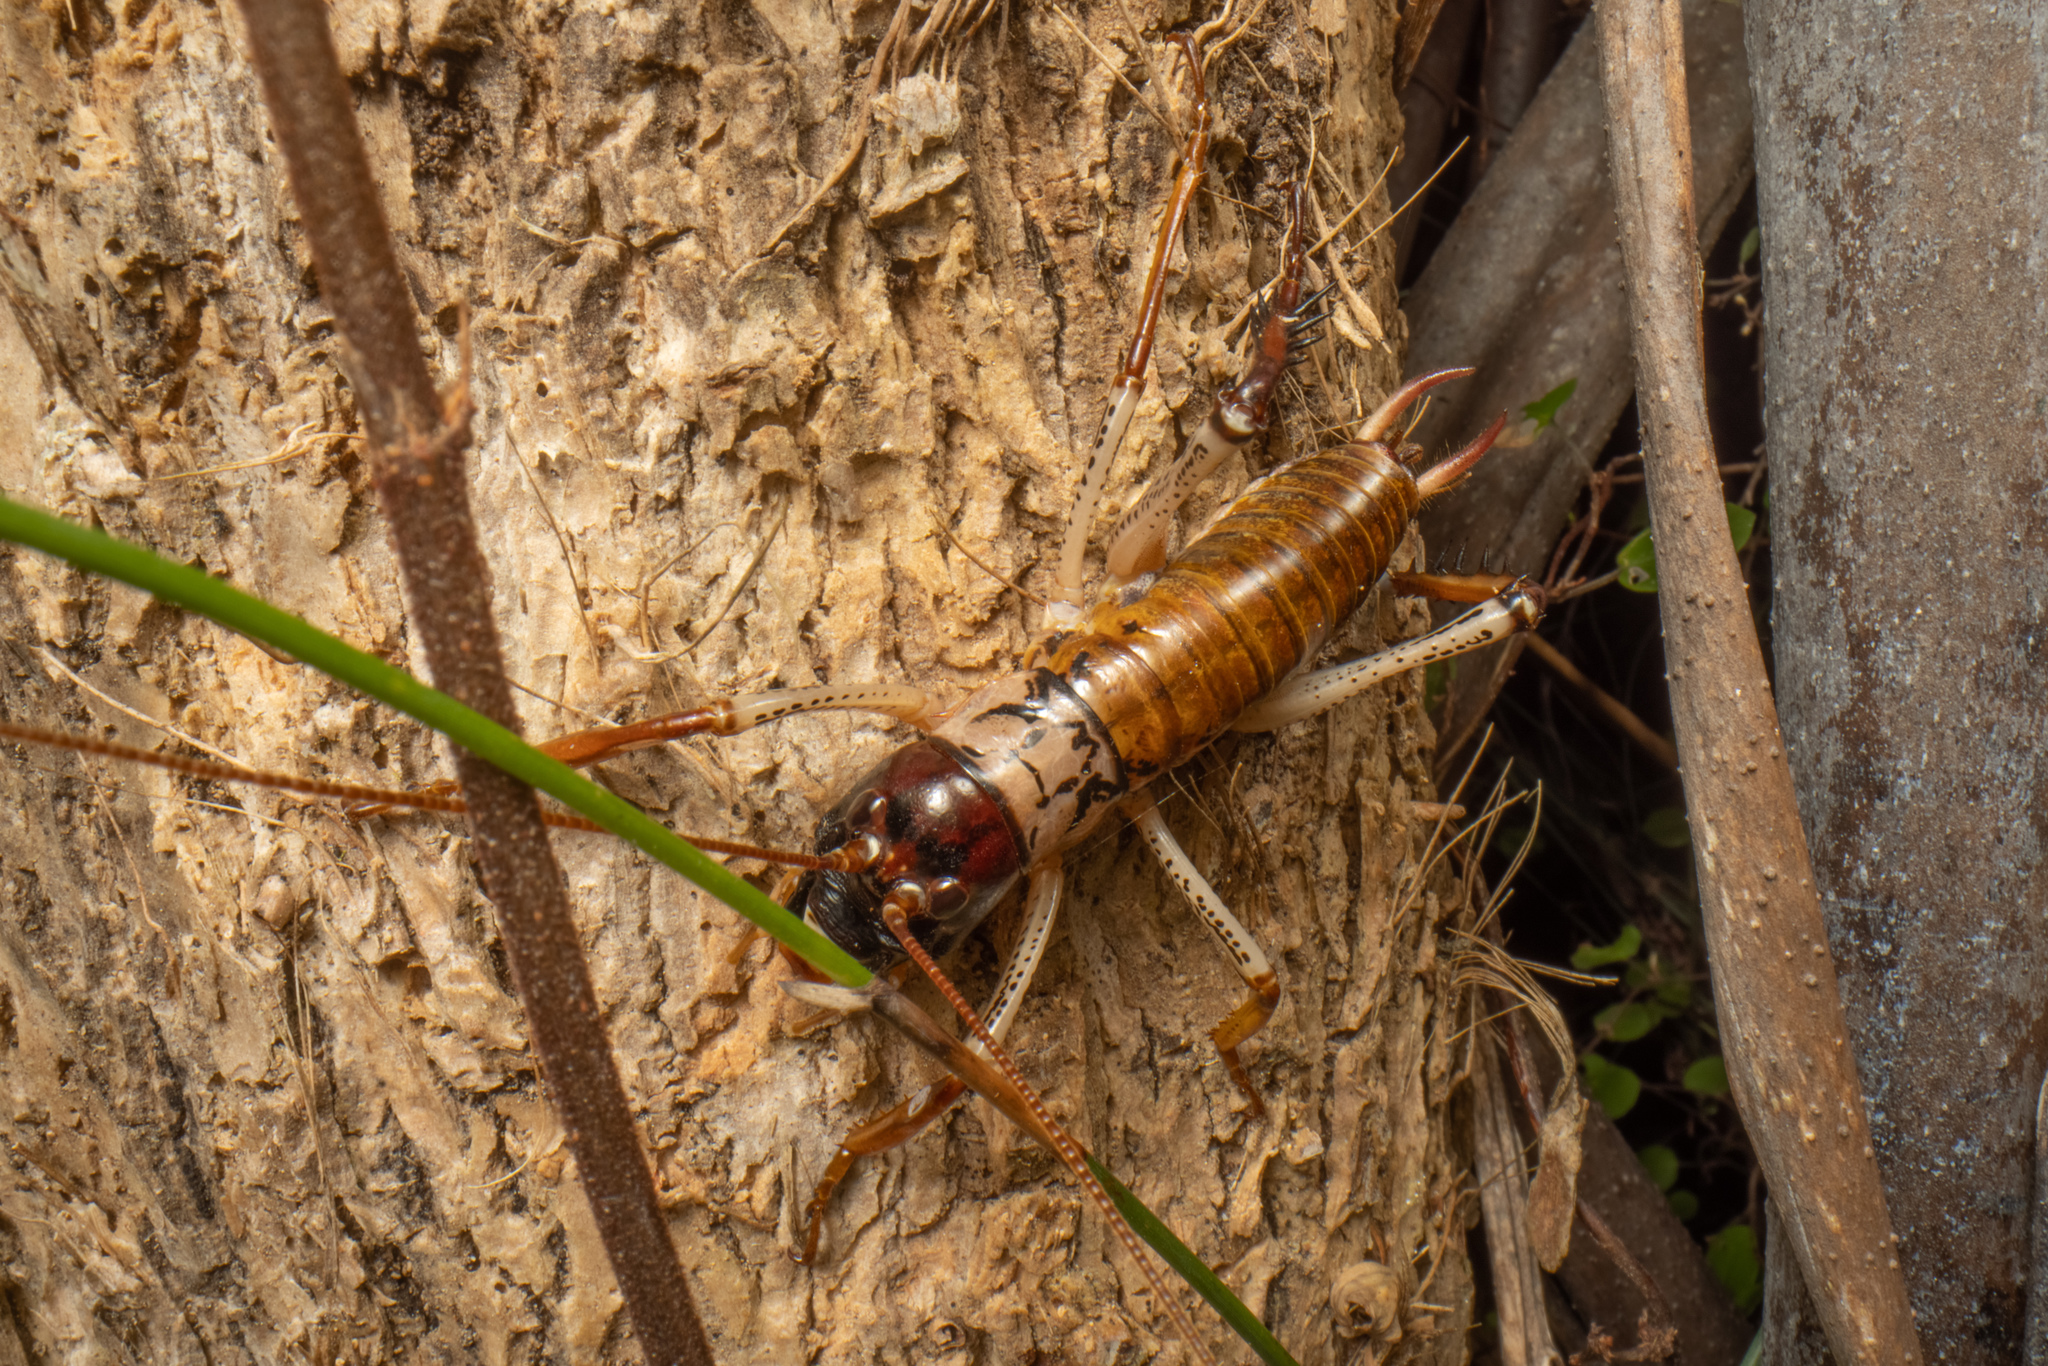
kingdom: Animalia
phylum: Arthropoda
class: Insecta
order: Orthoptera
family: Anostostomatidae
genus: Hemideina
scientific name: Hemideina thoracica
